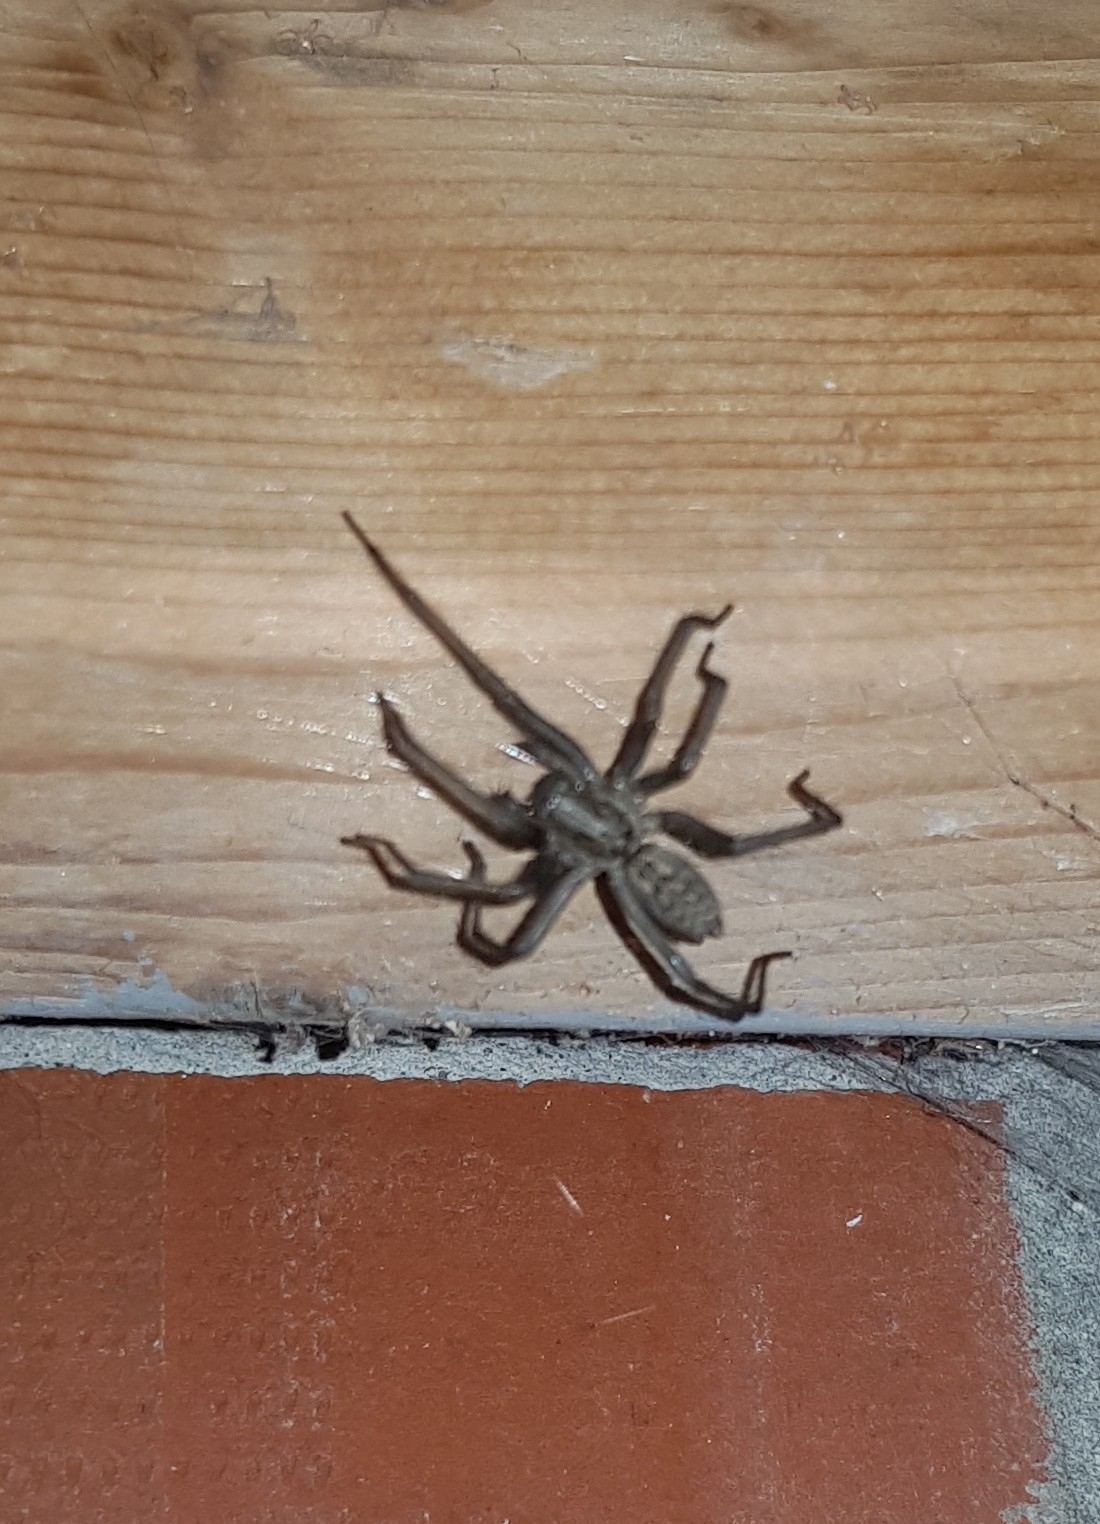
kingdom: Animalia
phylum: Arthropoda
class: Arachnida
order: Araneae
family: Agelenidae
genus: Eratigena
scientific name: Eratigena atrica
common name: Giant house spider
